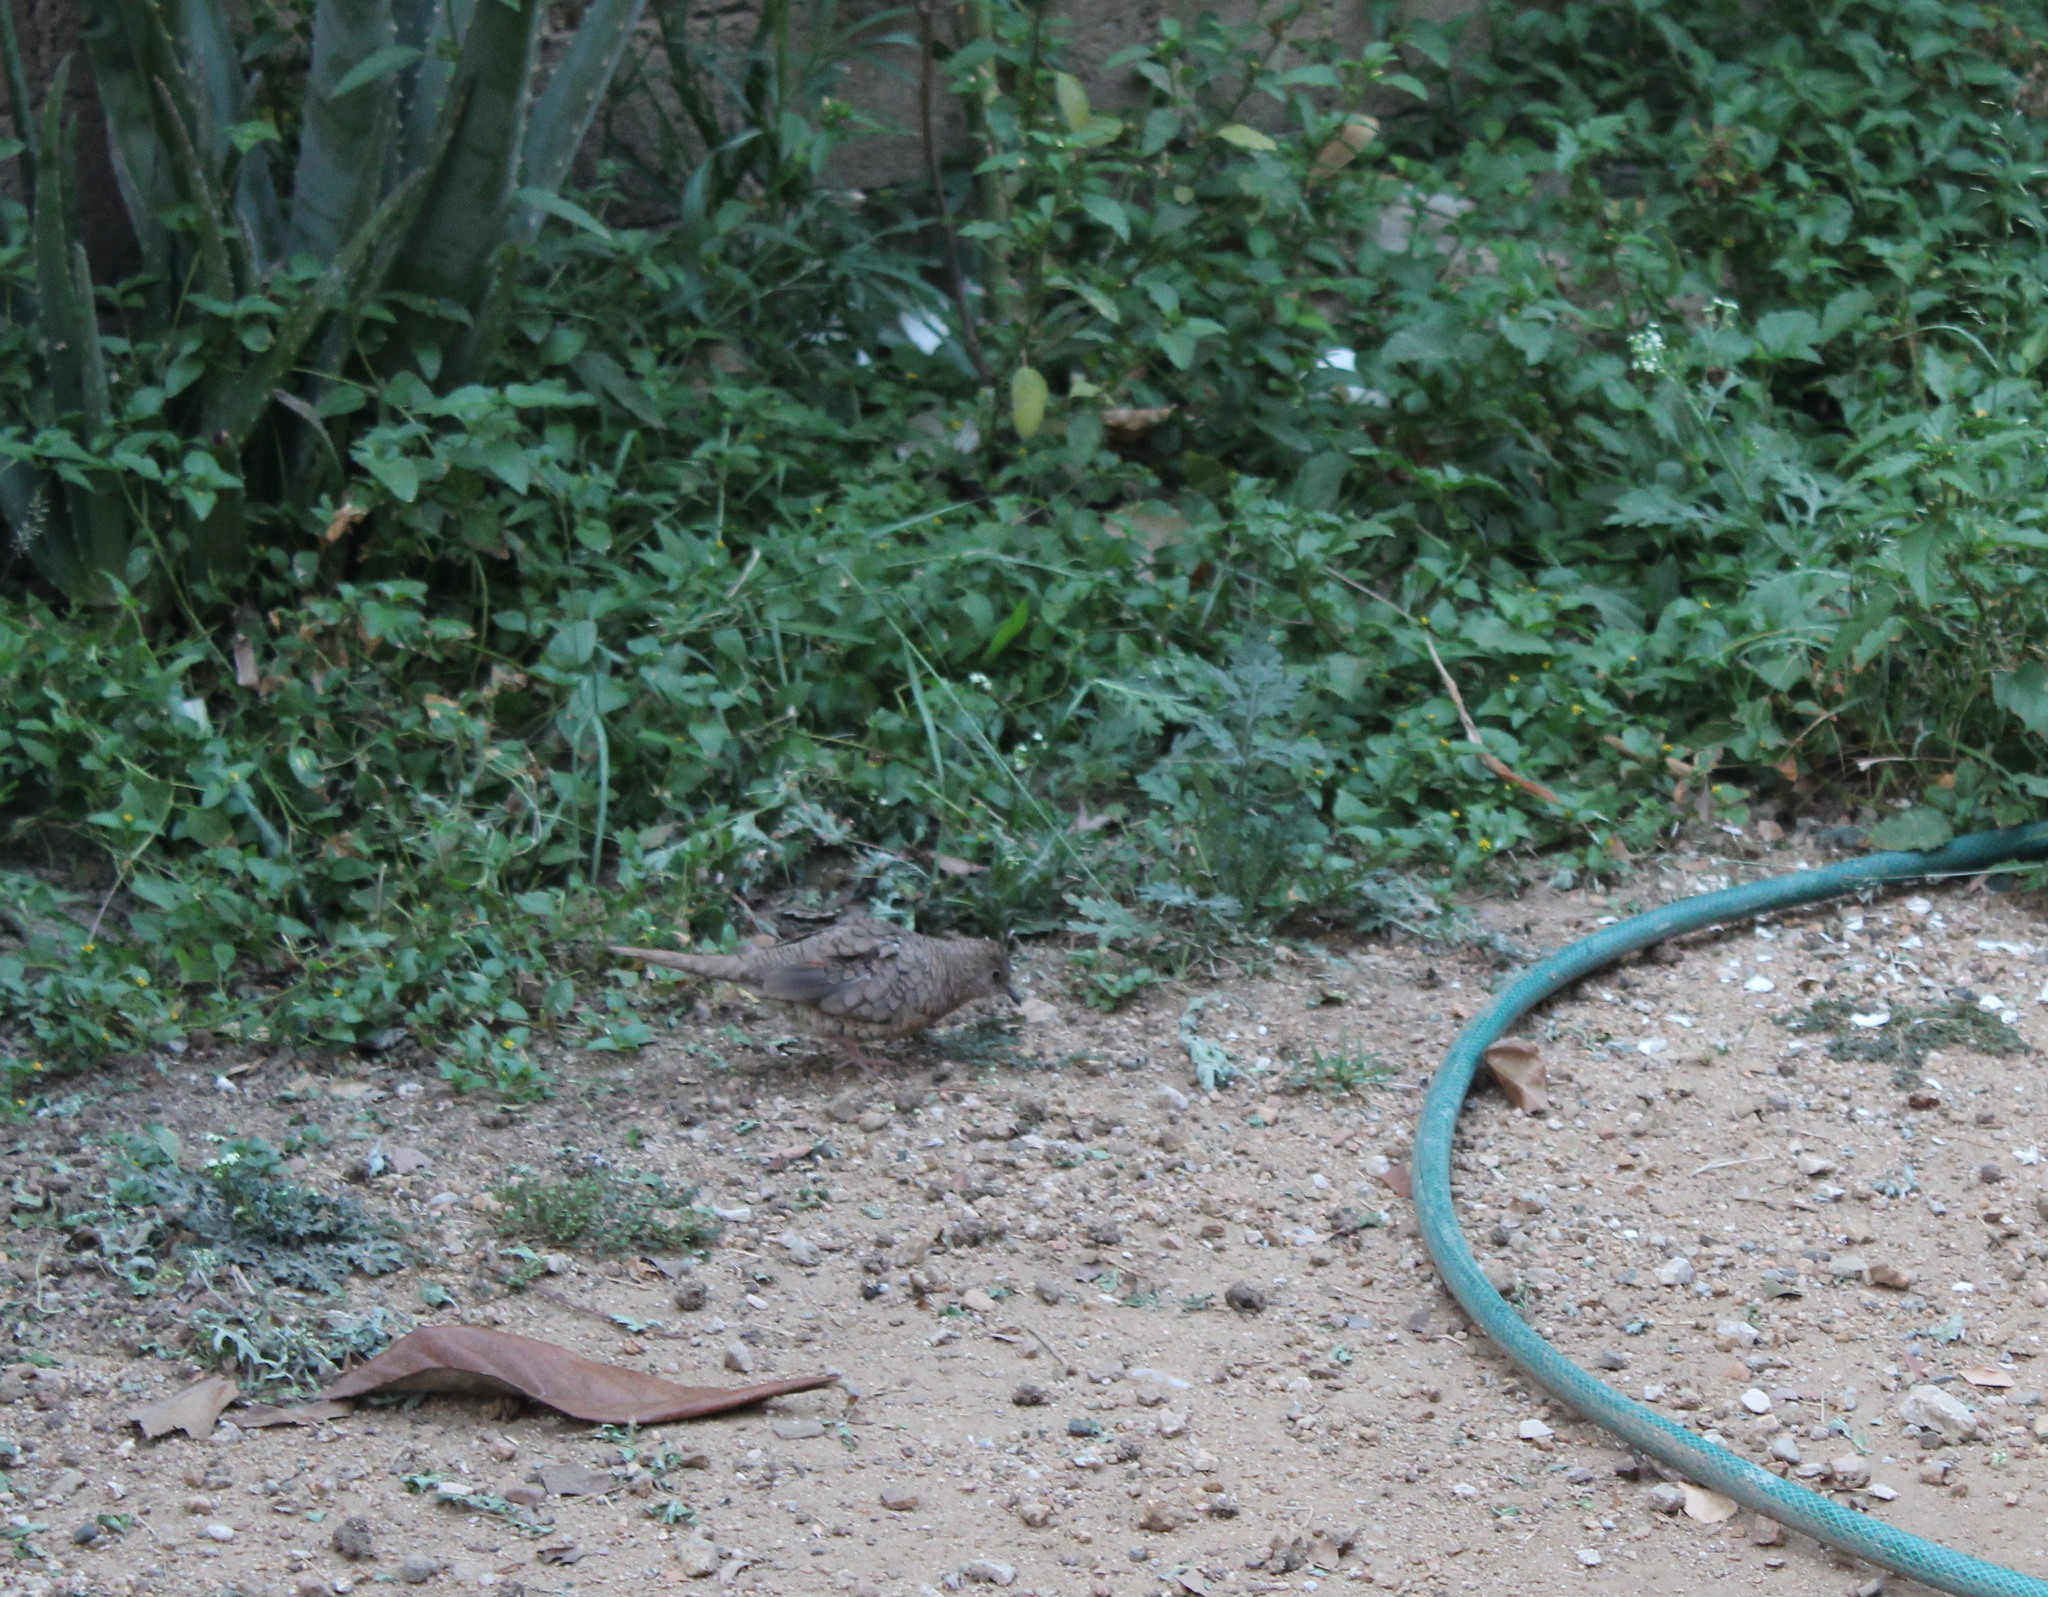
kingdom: Animalia
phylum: Chordata
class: Aves
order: Columbiformes
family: Columbidae
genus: Columbina
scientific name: Columbina inca
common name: Inca dove
